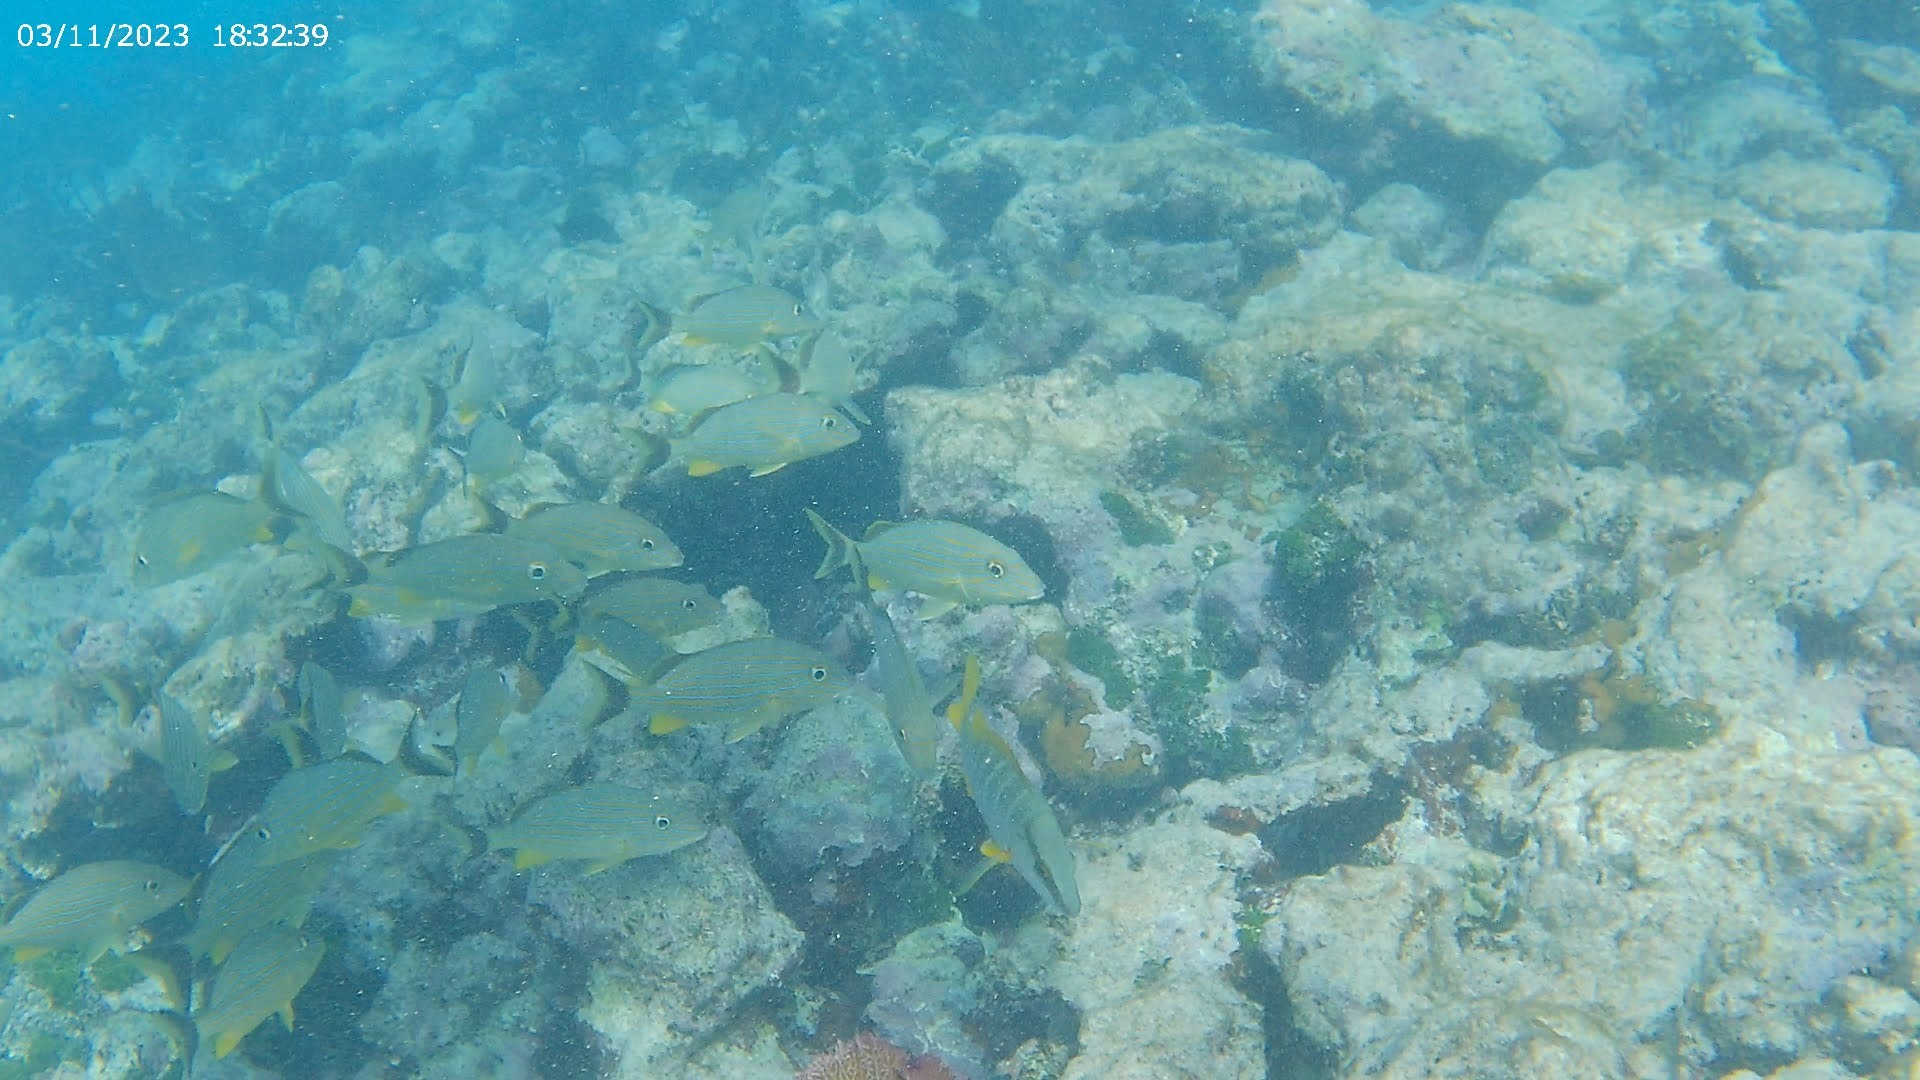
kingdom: Animalia
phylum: Chordata
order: Perciformes
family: Haemulidae
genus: Haemulon
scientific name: Haemulon sciurus
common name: Bluestriped grunt
